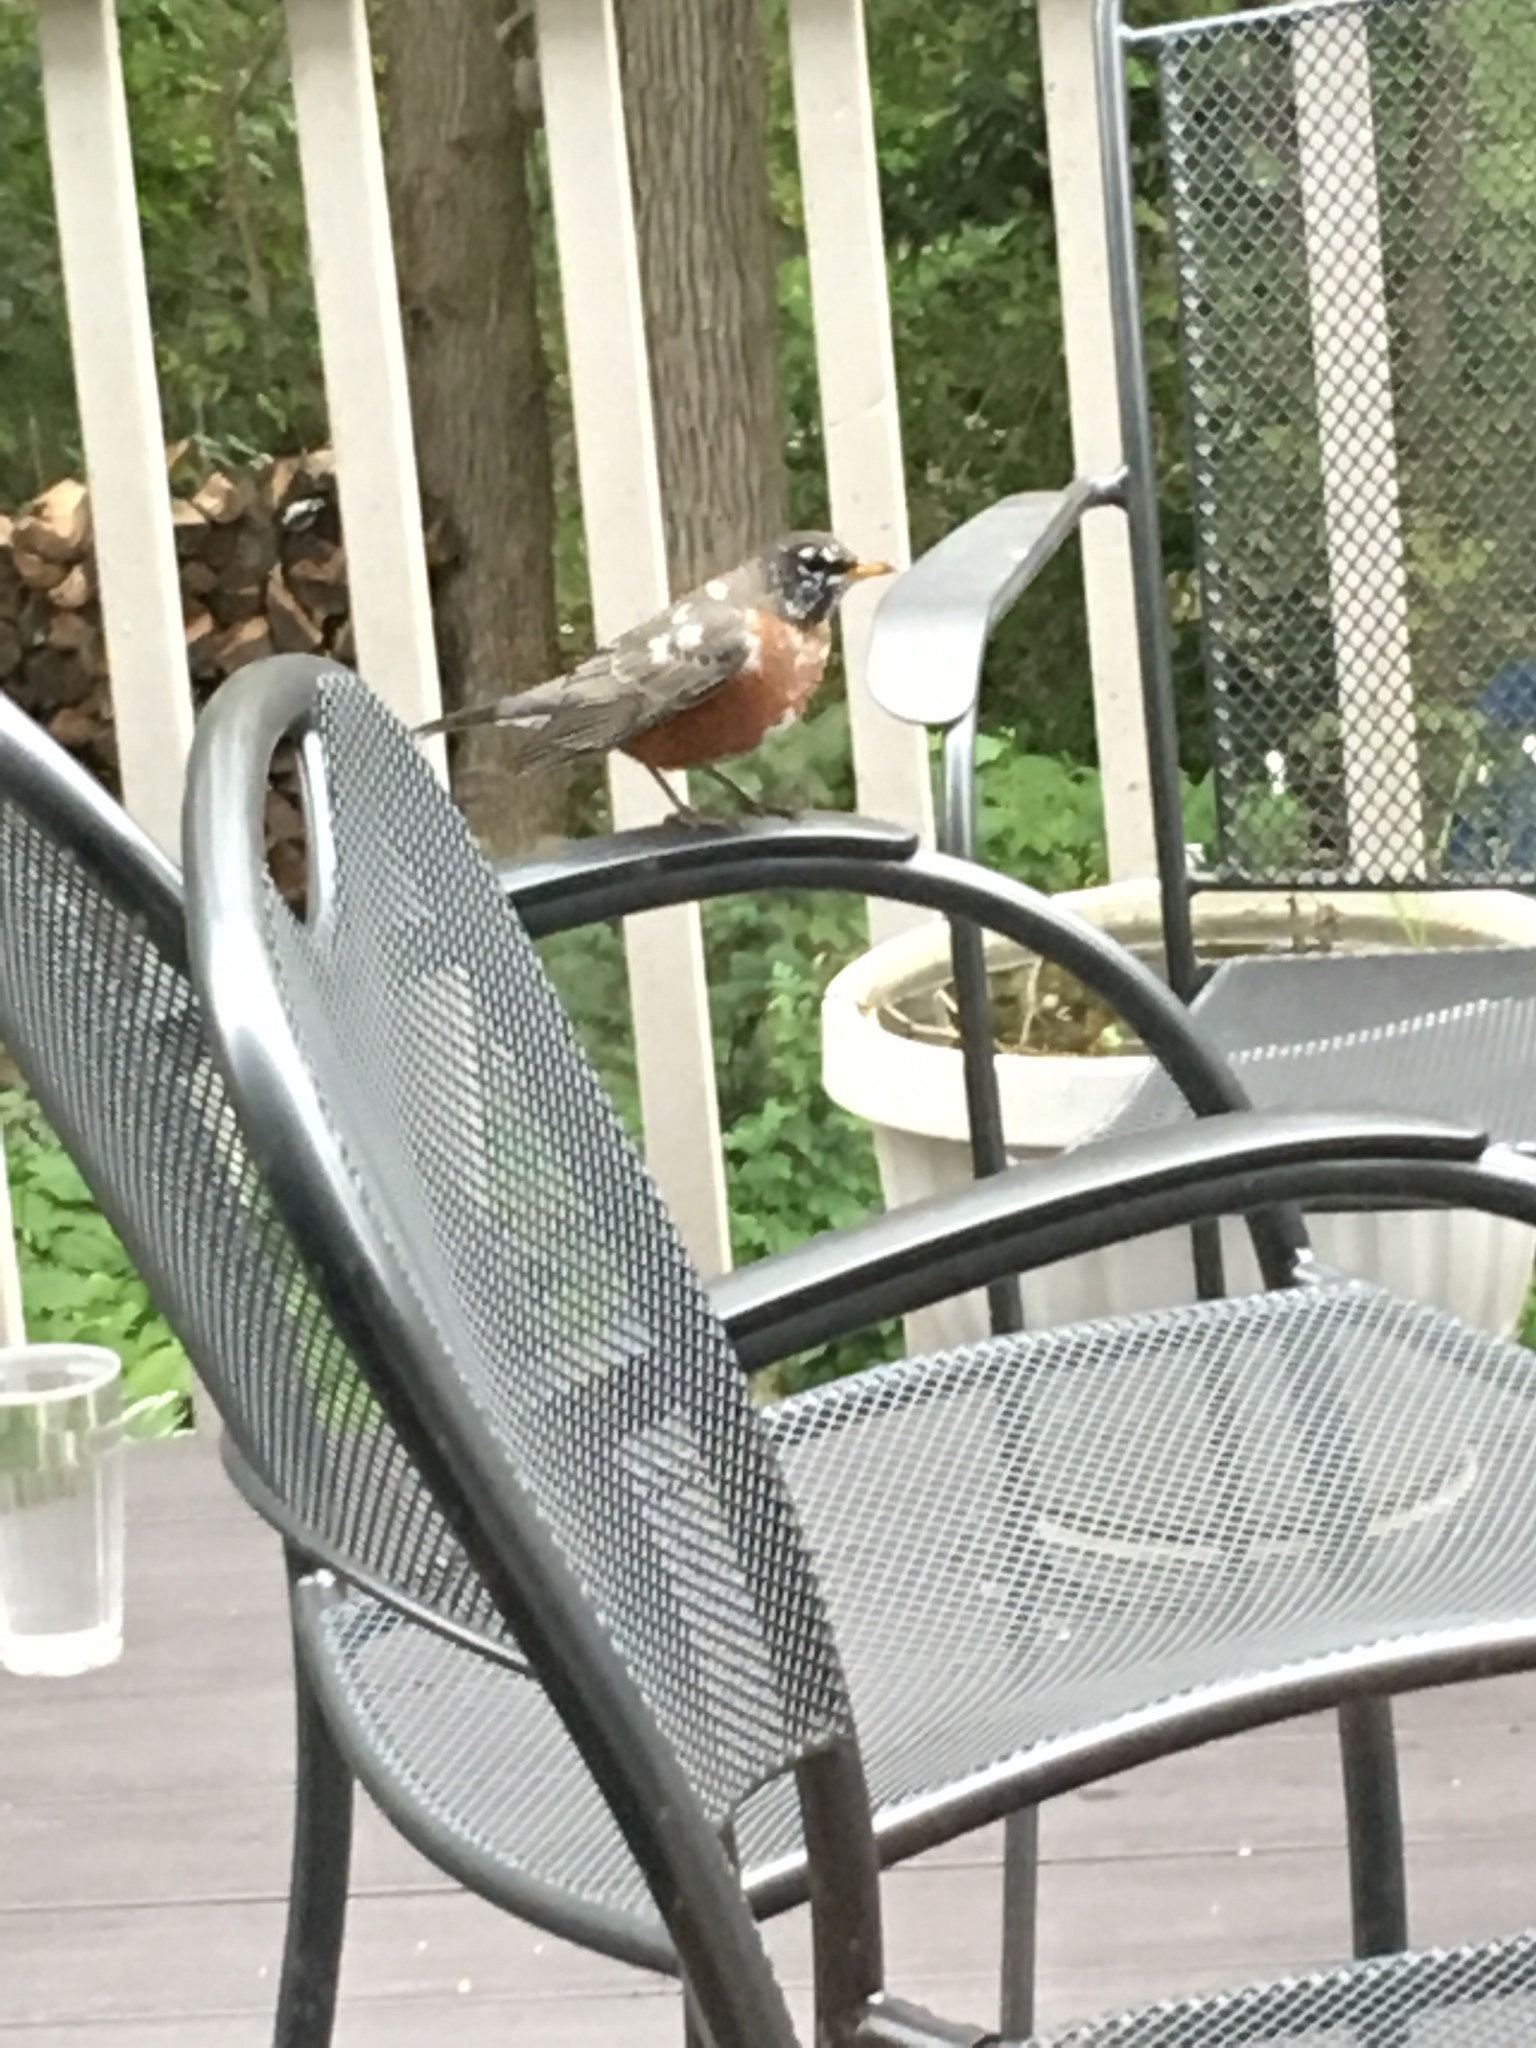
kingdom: Animalia
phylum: Chordata
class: Aves
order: Passeriformes
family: Turdidae
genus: Turdus
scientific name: Turdus migratorius
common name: American robin
